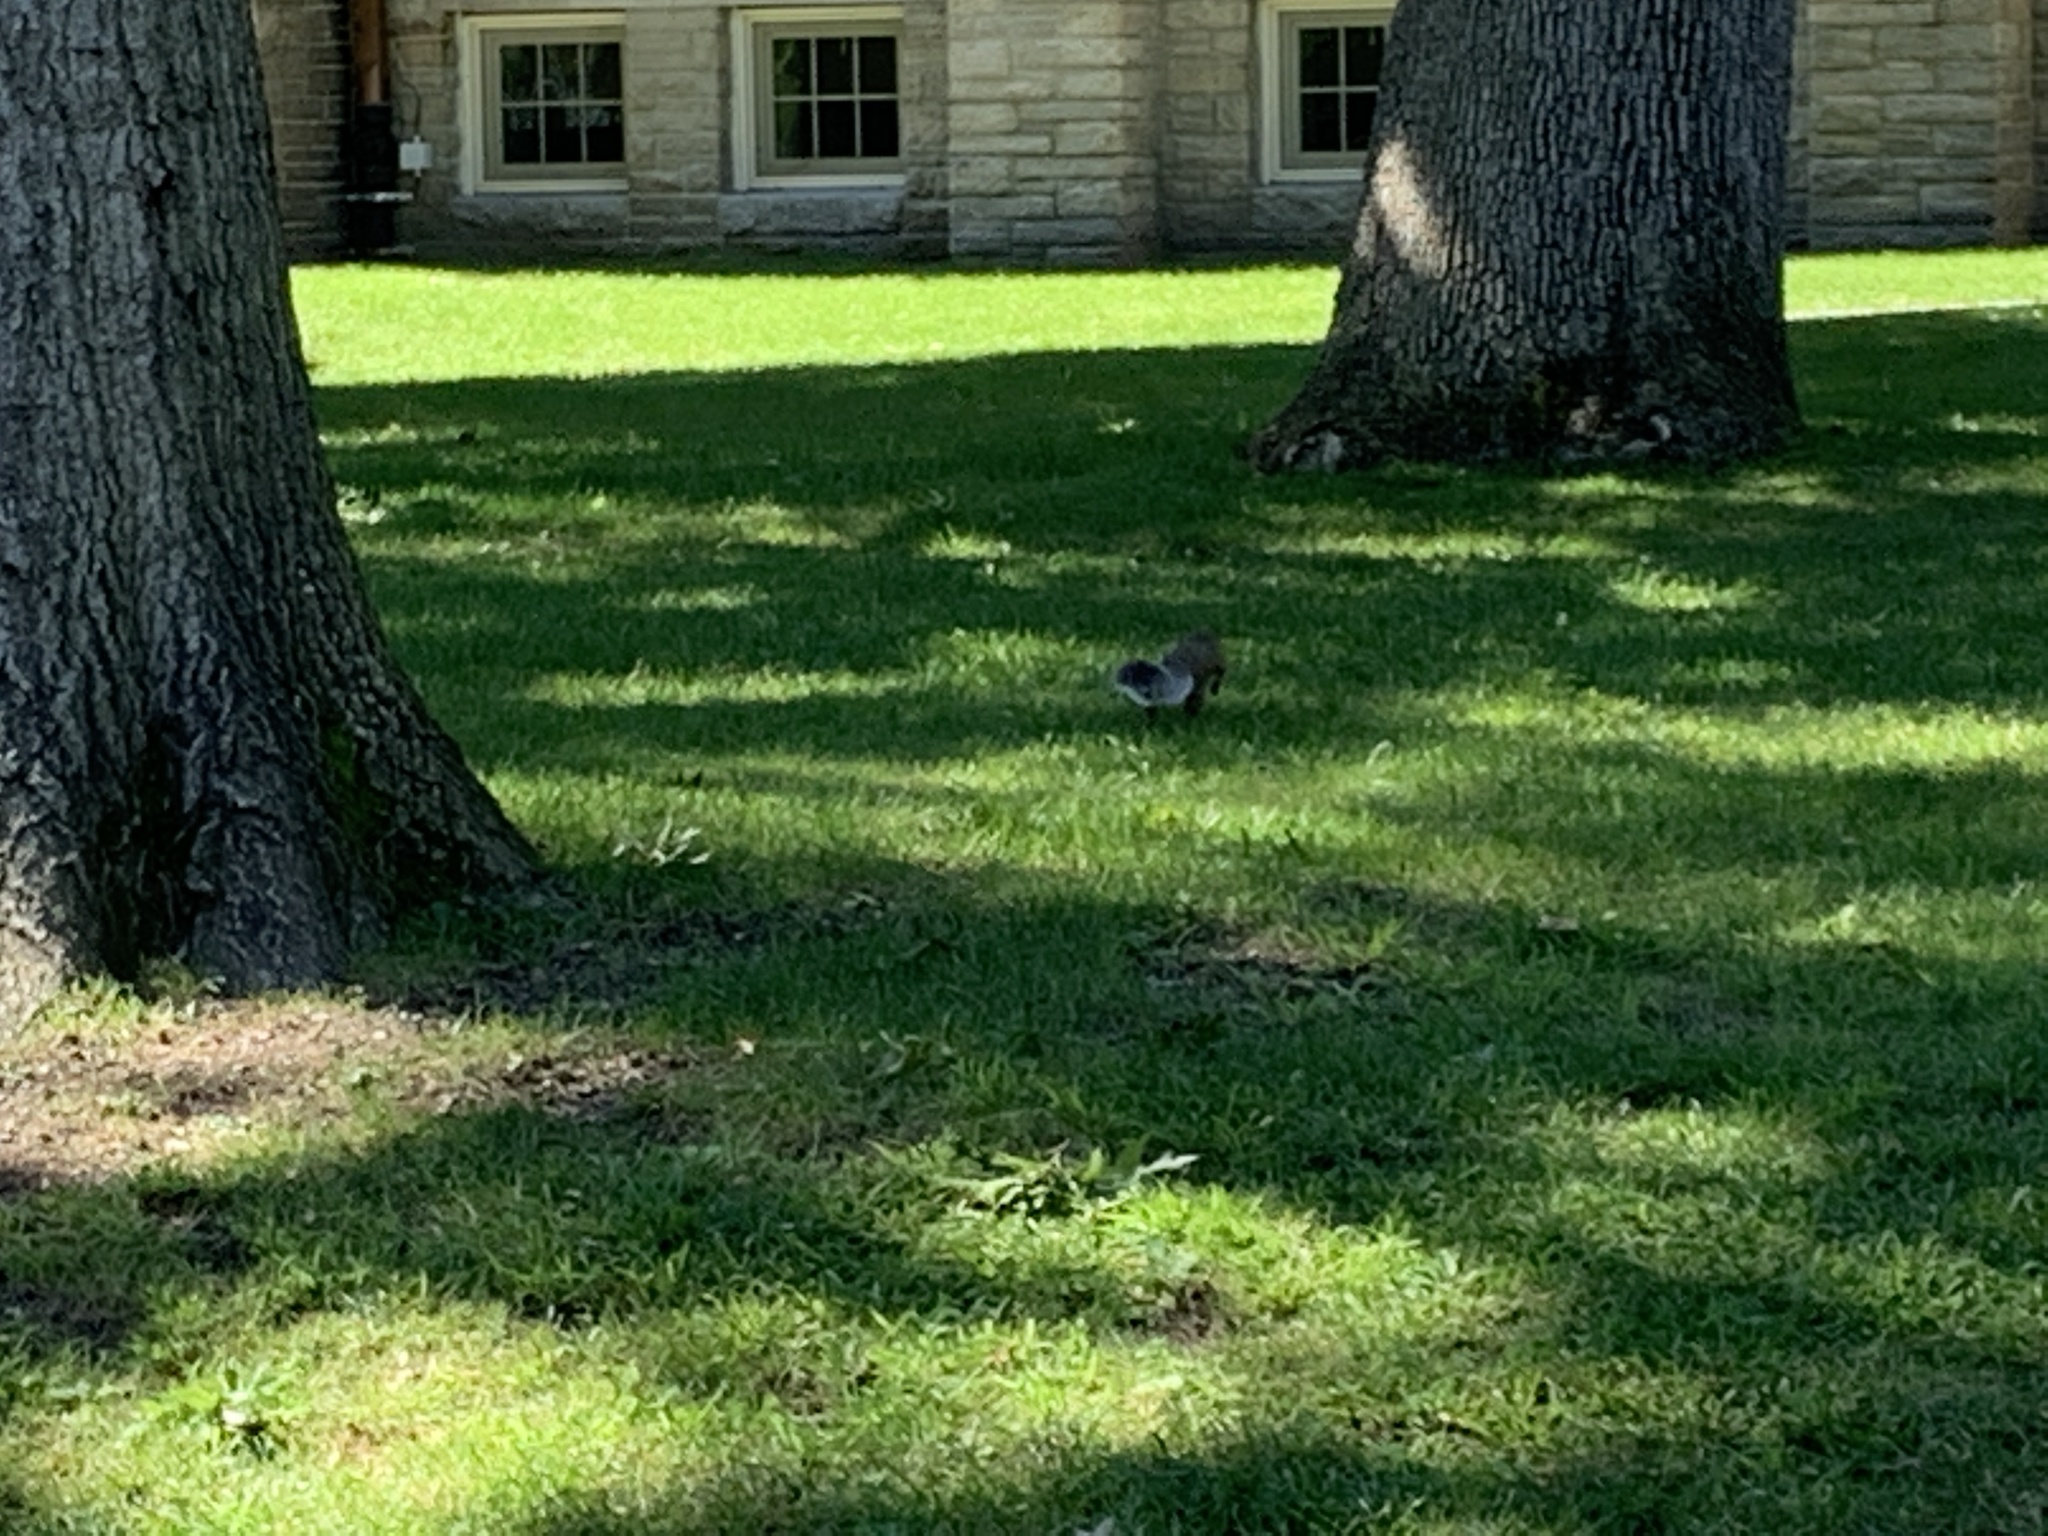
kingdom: Animalia
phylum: Chordata
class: Mammalia
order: Rodentia
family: Sciuridae
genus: Sciurus
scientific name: Sciurus carolinensis
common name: Eastern gray squirrel
